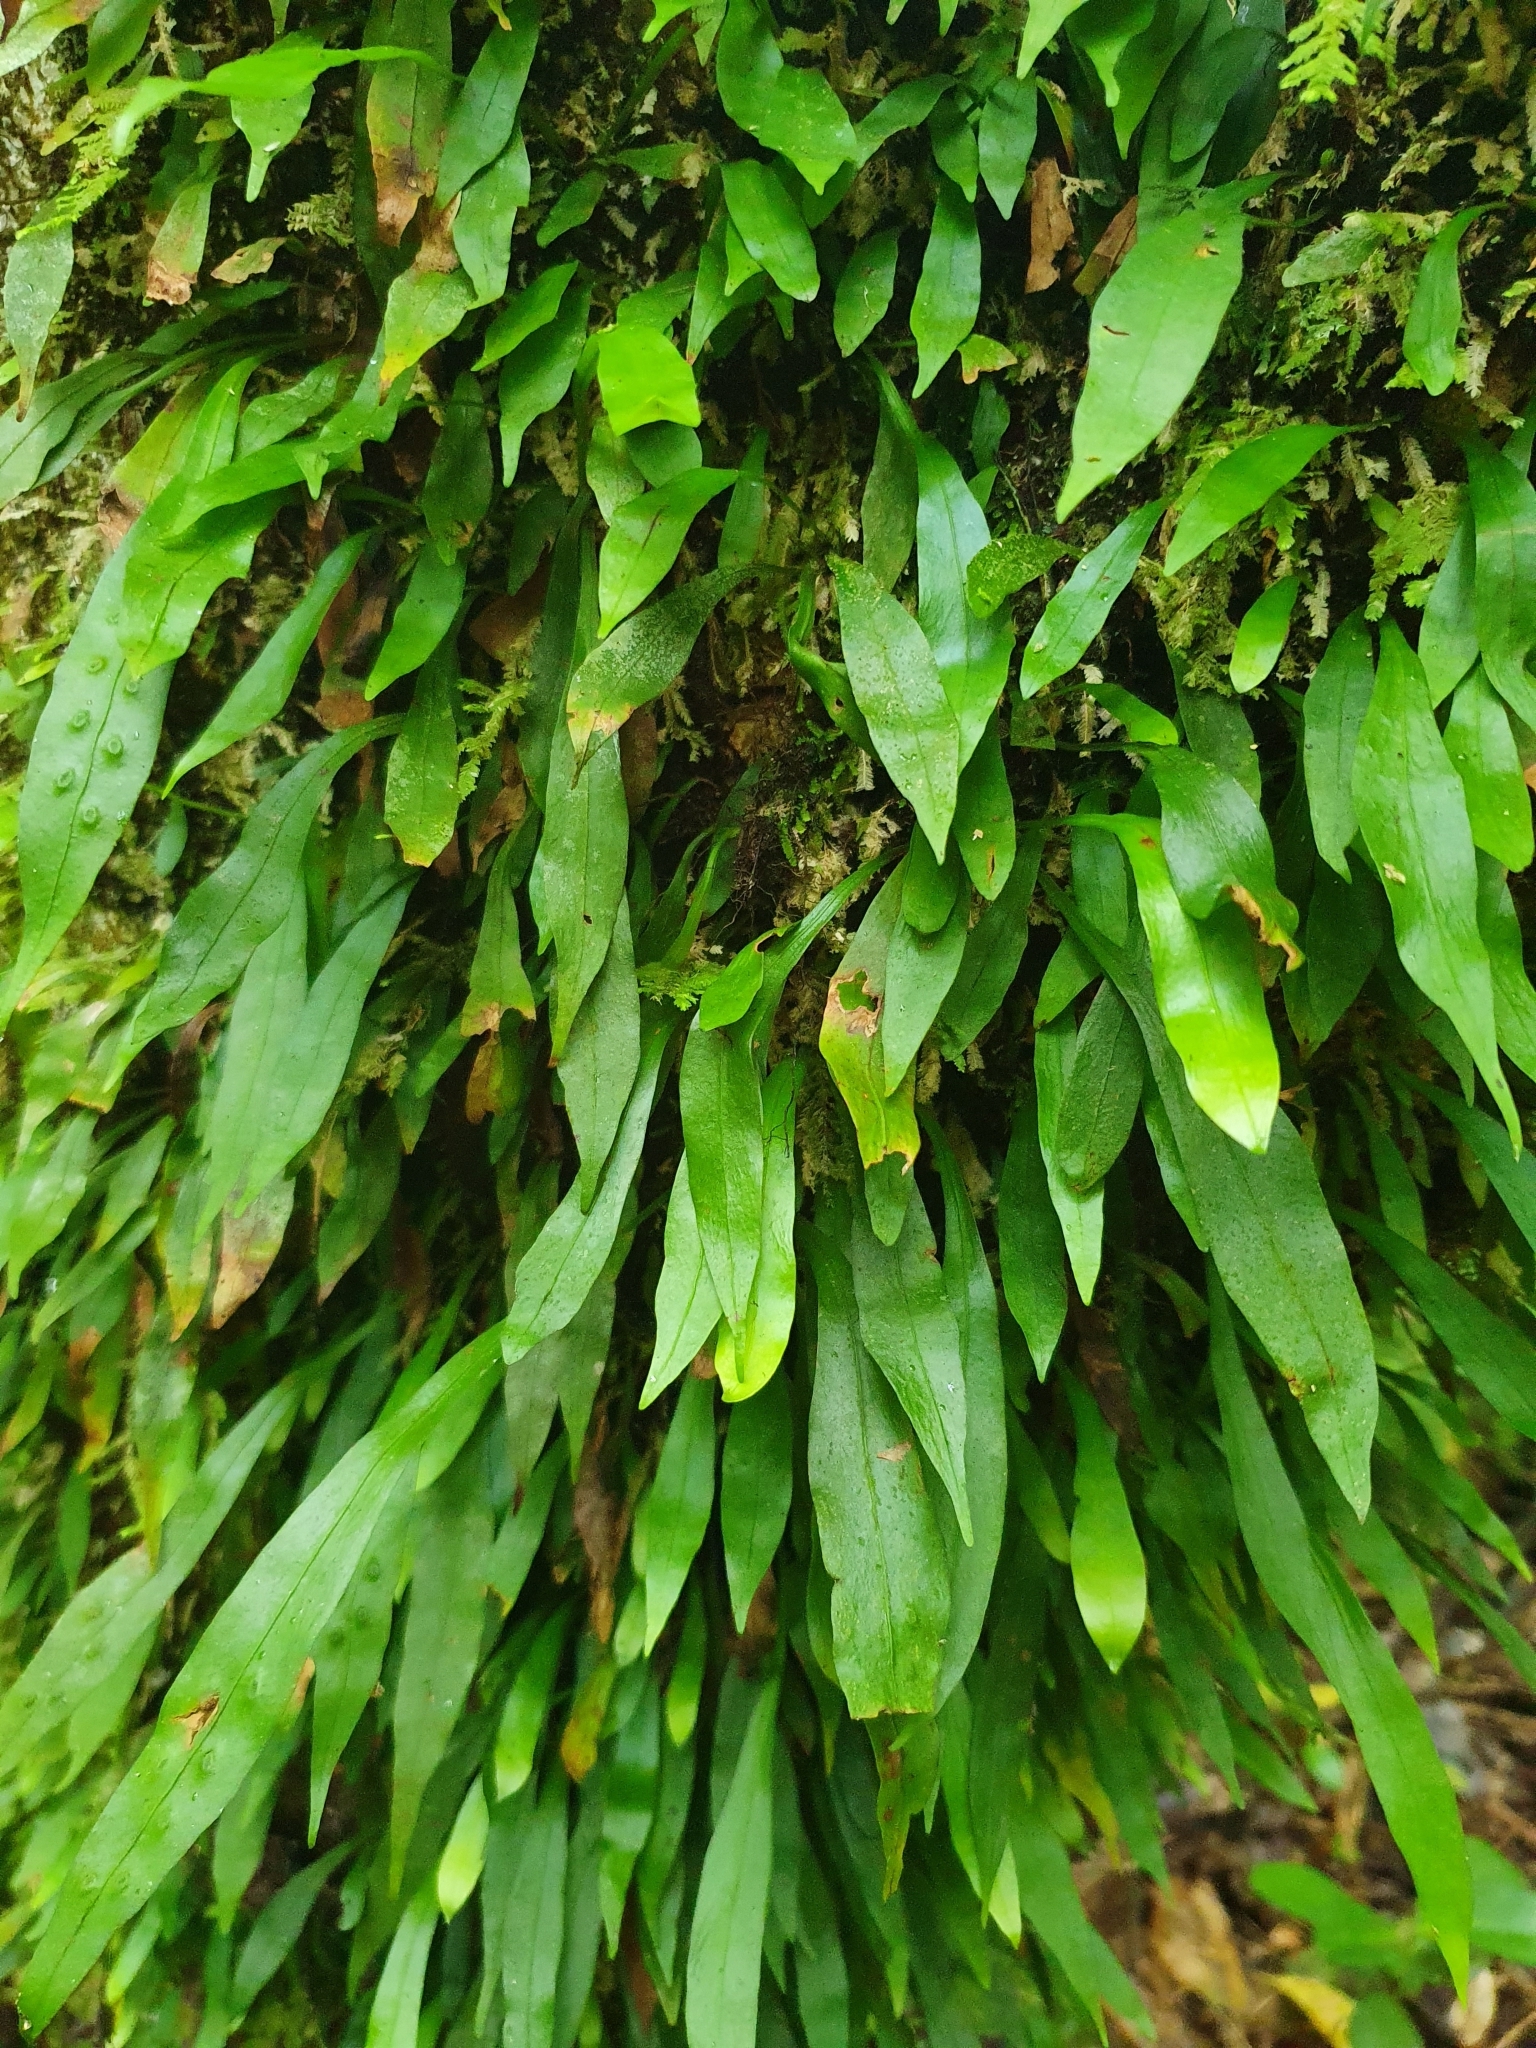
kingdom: Plantae
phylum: Tracheophyta
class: Polypodiopsida
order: Polypodiales
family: Polypodiaceae
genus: Loxogramme
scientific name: Loxogramme dictyopteris
